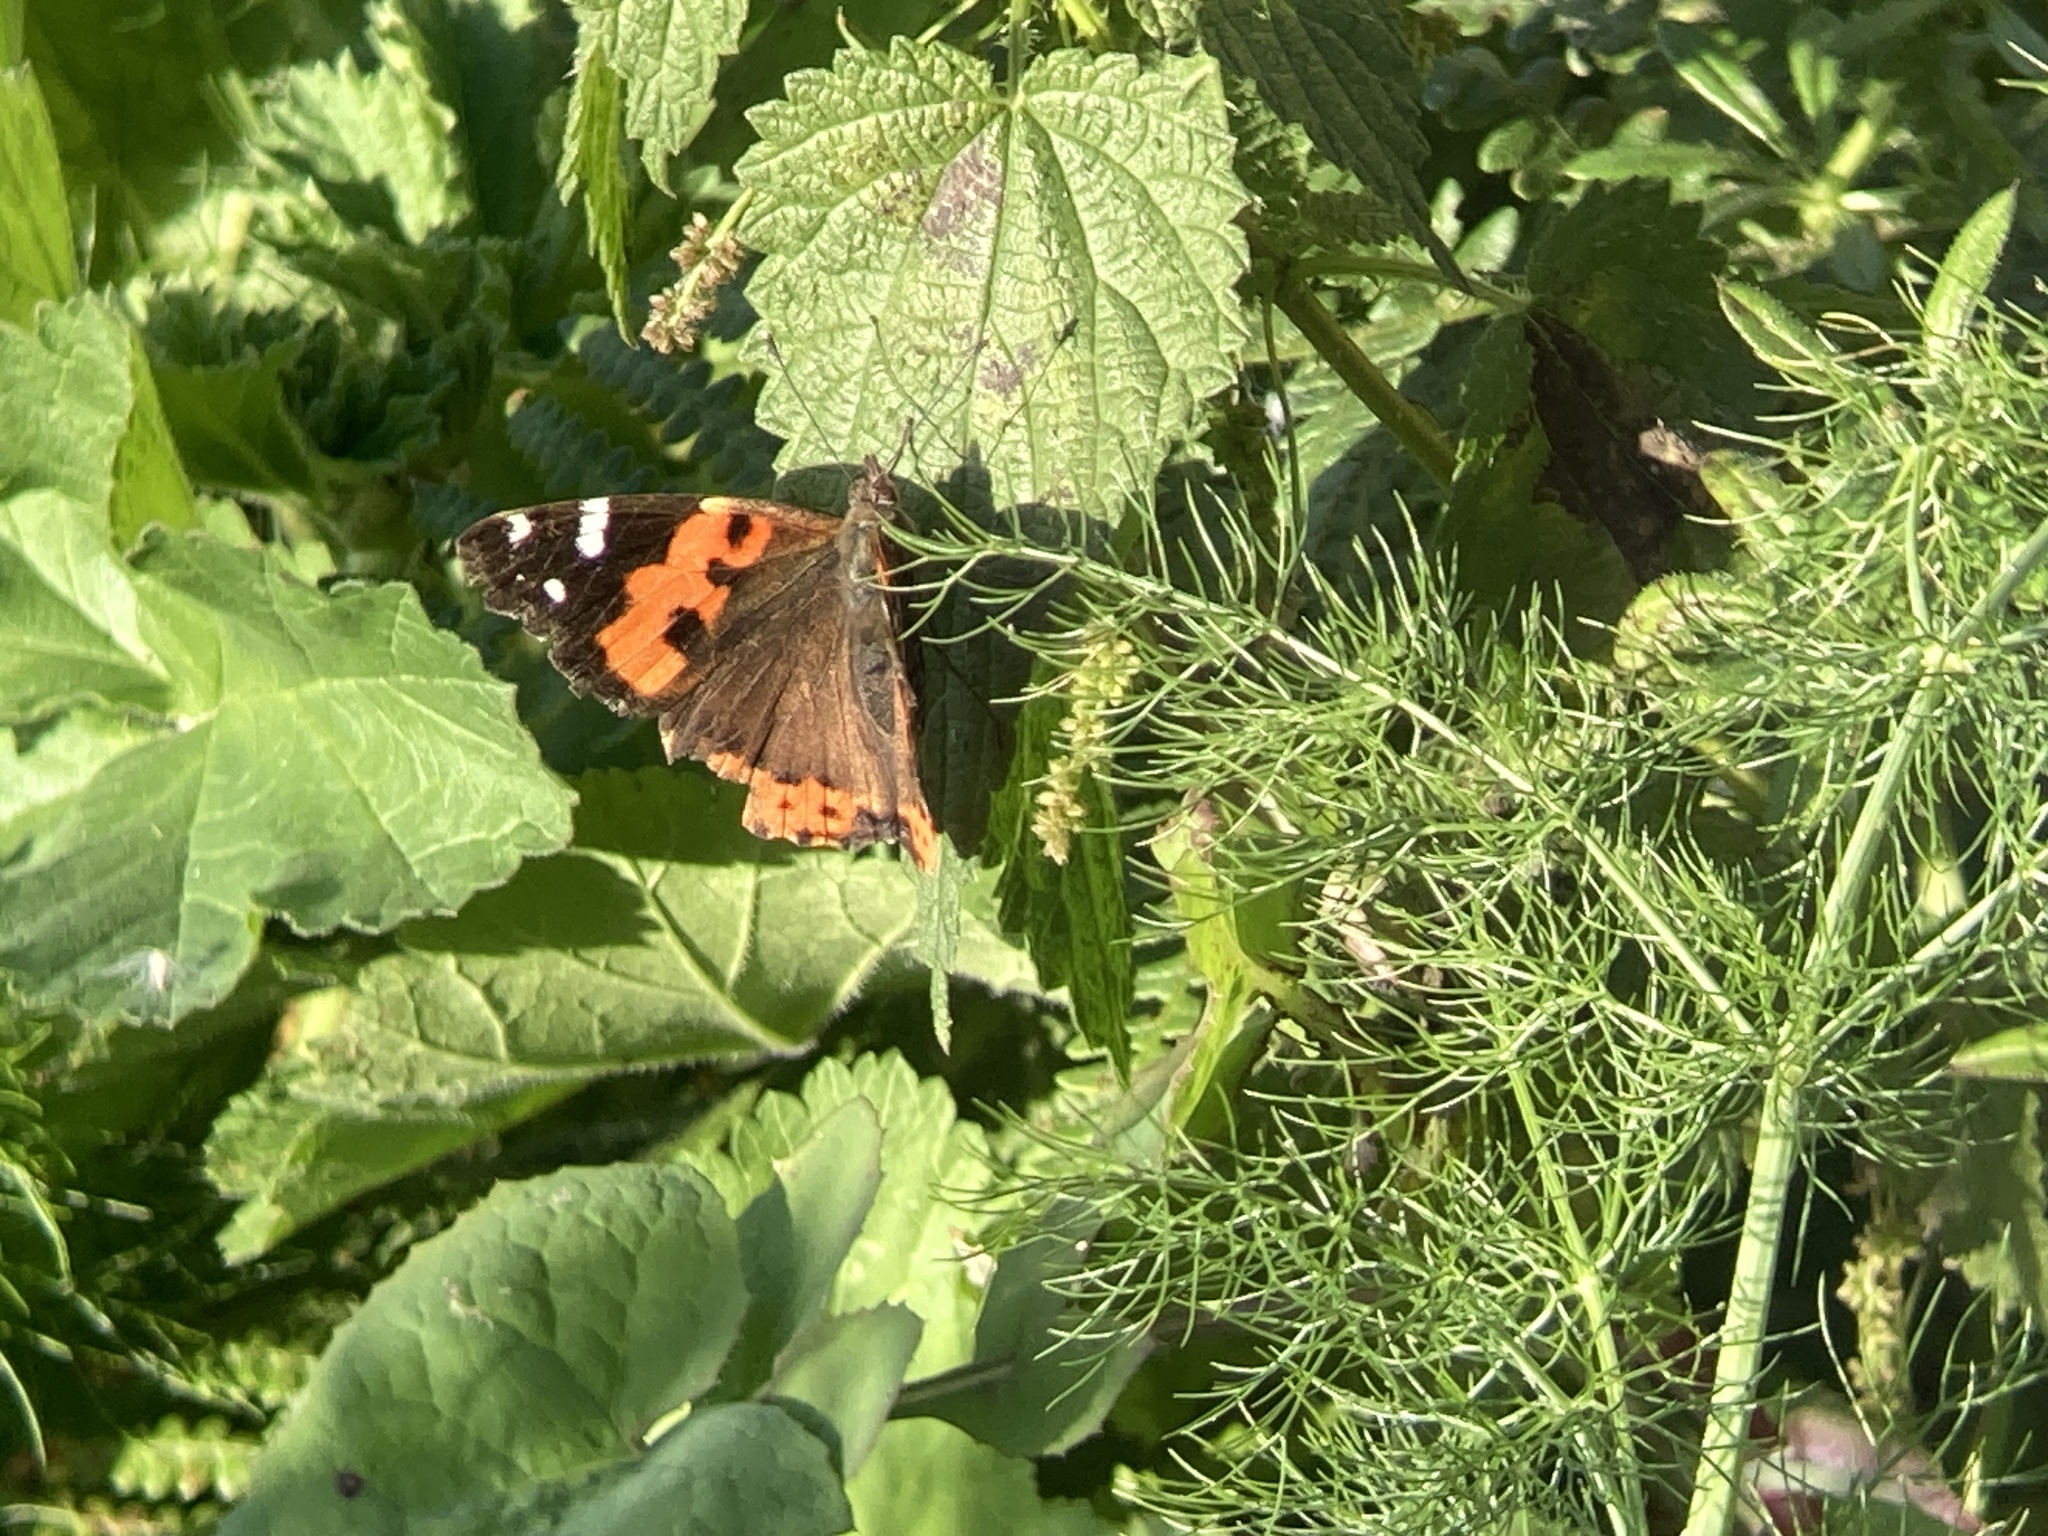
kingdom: Animalia
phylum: Arthropoda
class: Insecta
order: Lepidoptera
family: Nymphalidae
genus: Vanessa
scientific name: Vanessa vulcania
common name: Canary red admiral
